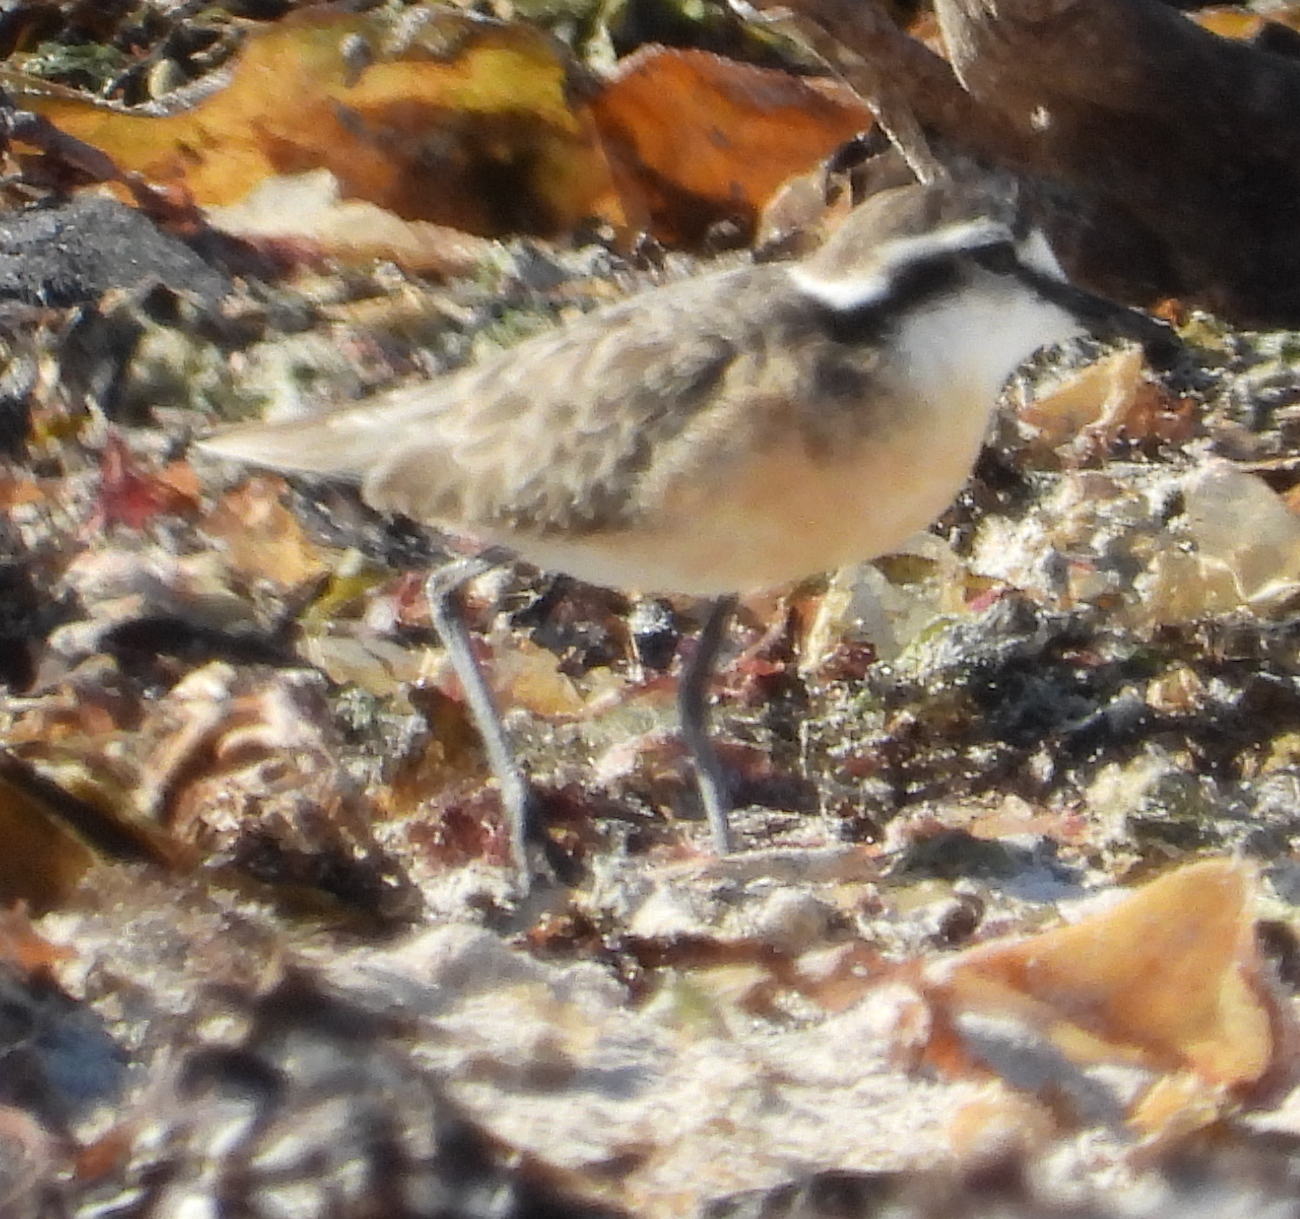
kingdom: Animalia
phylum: Chordata
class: Aves
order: Charadriiformes
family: Charadriidae
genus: Anarhynchus
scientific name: Anarhynchus
